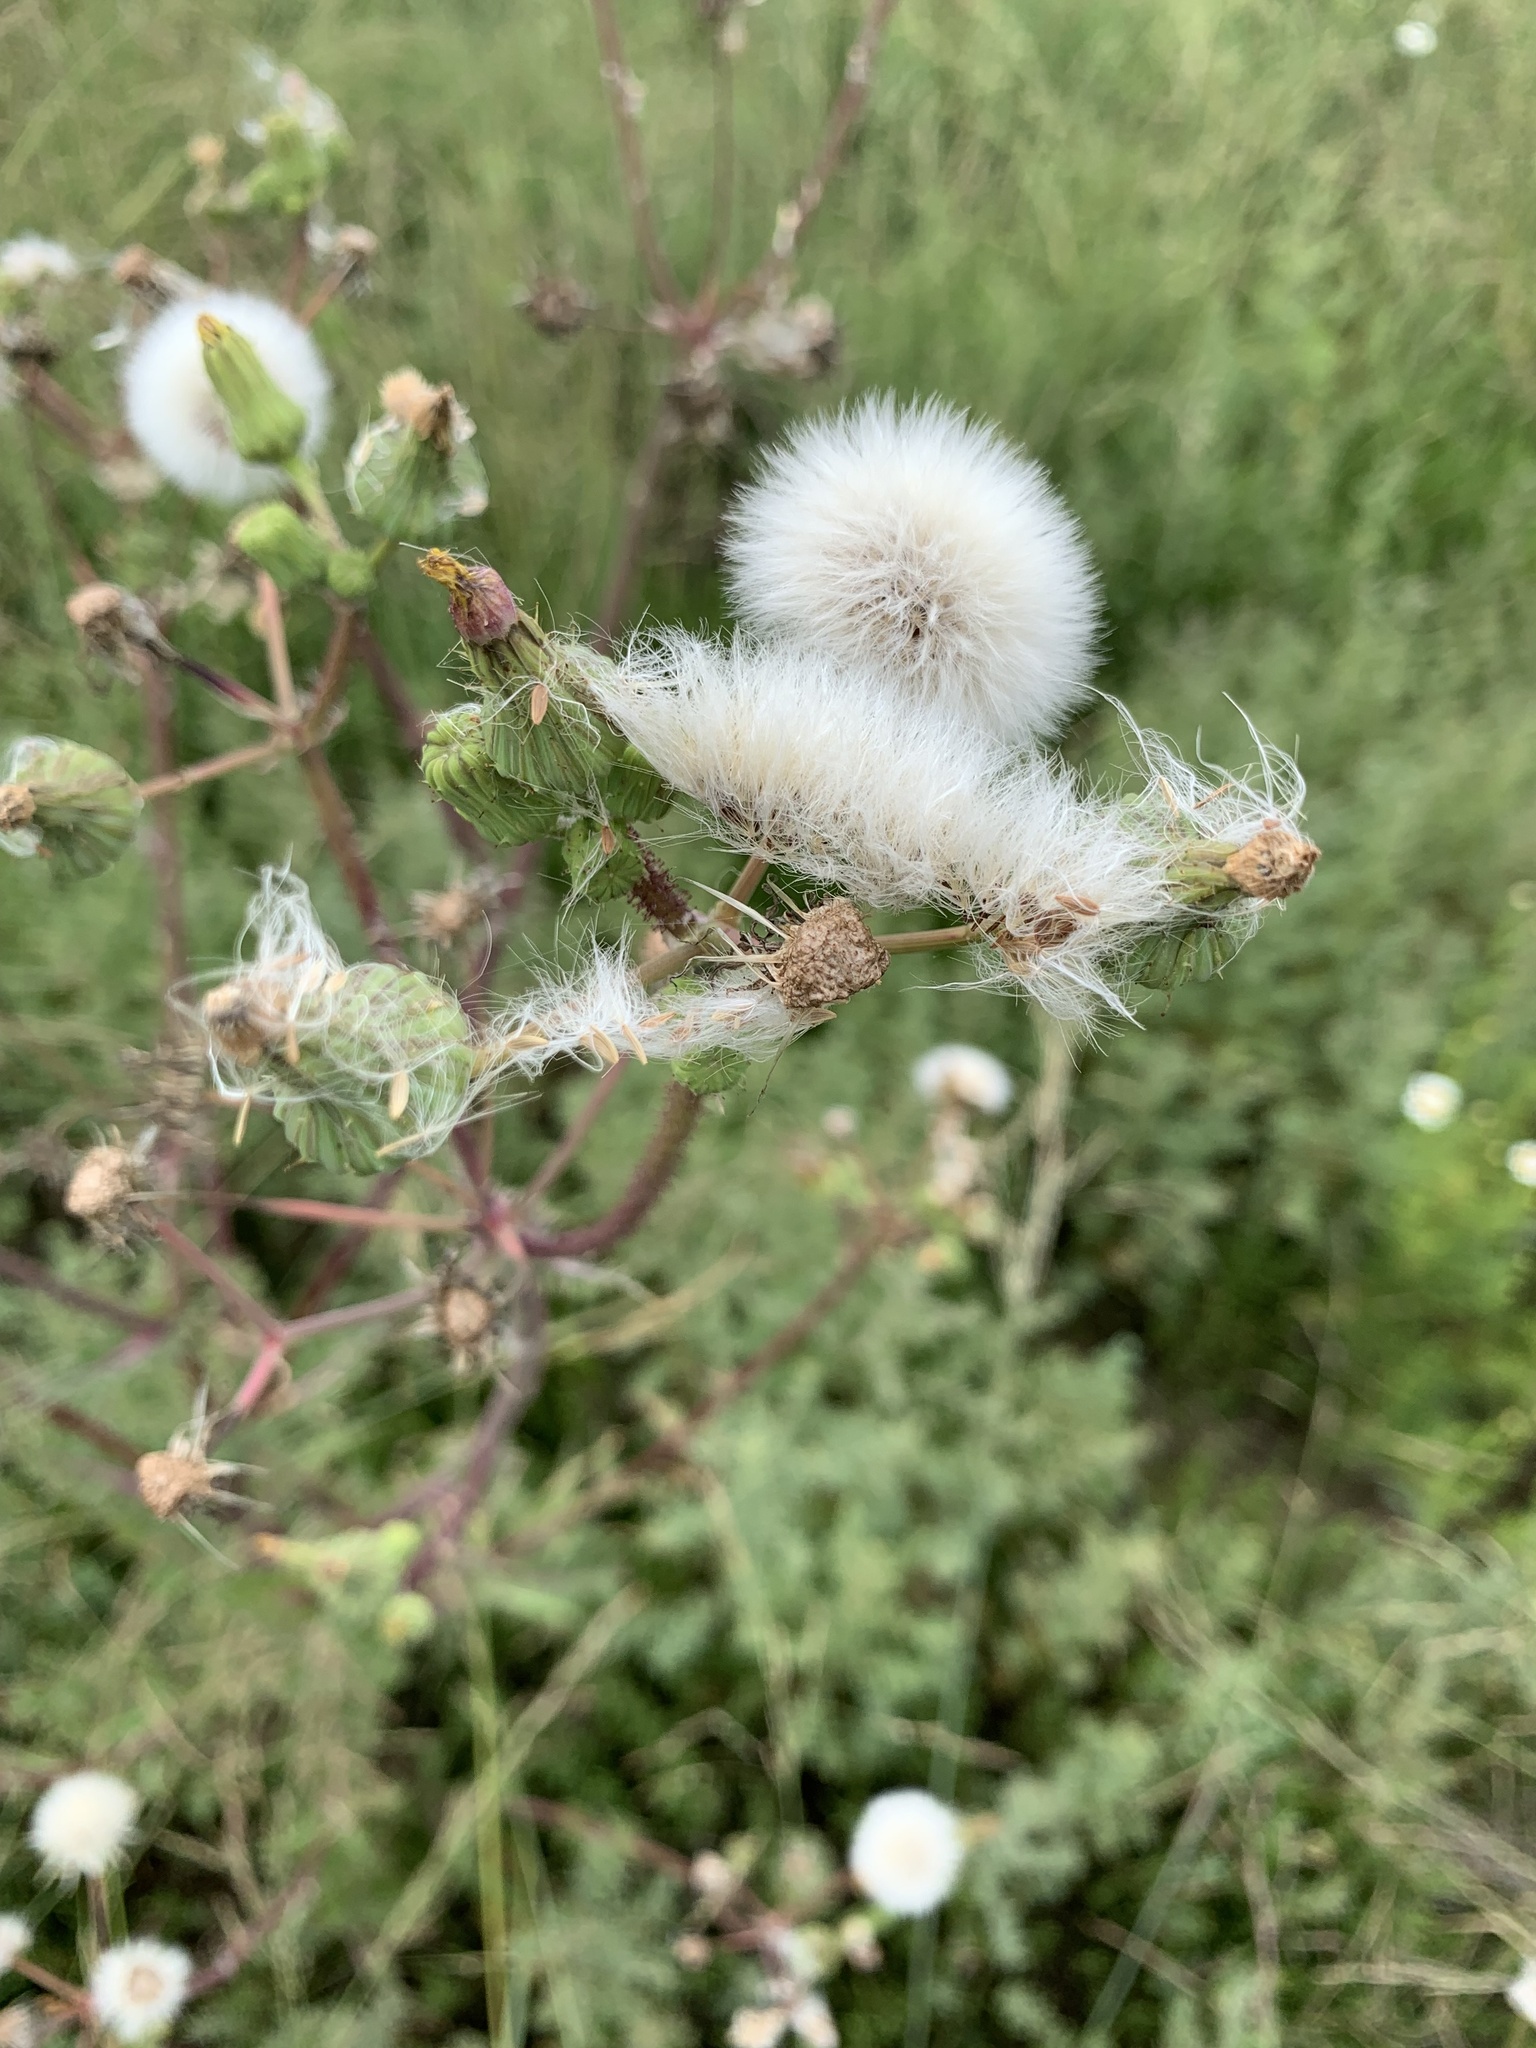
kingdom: Plantae
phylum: Tracheophyta
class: Magnoliopsida
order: Asterales
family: Asteraceae
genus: Sonchus
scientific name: Sonchus asper
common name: Prickly sow-thistle
